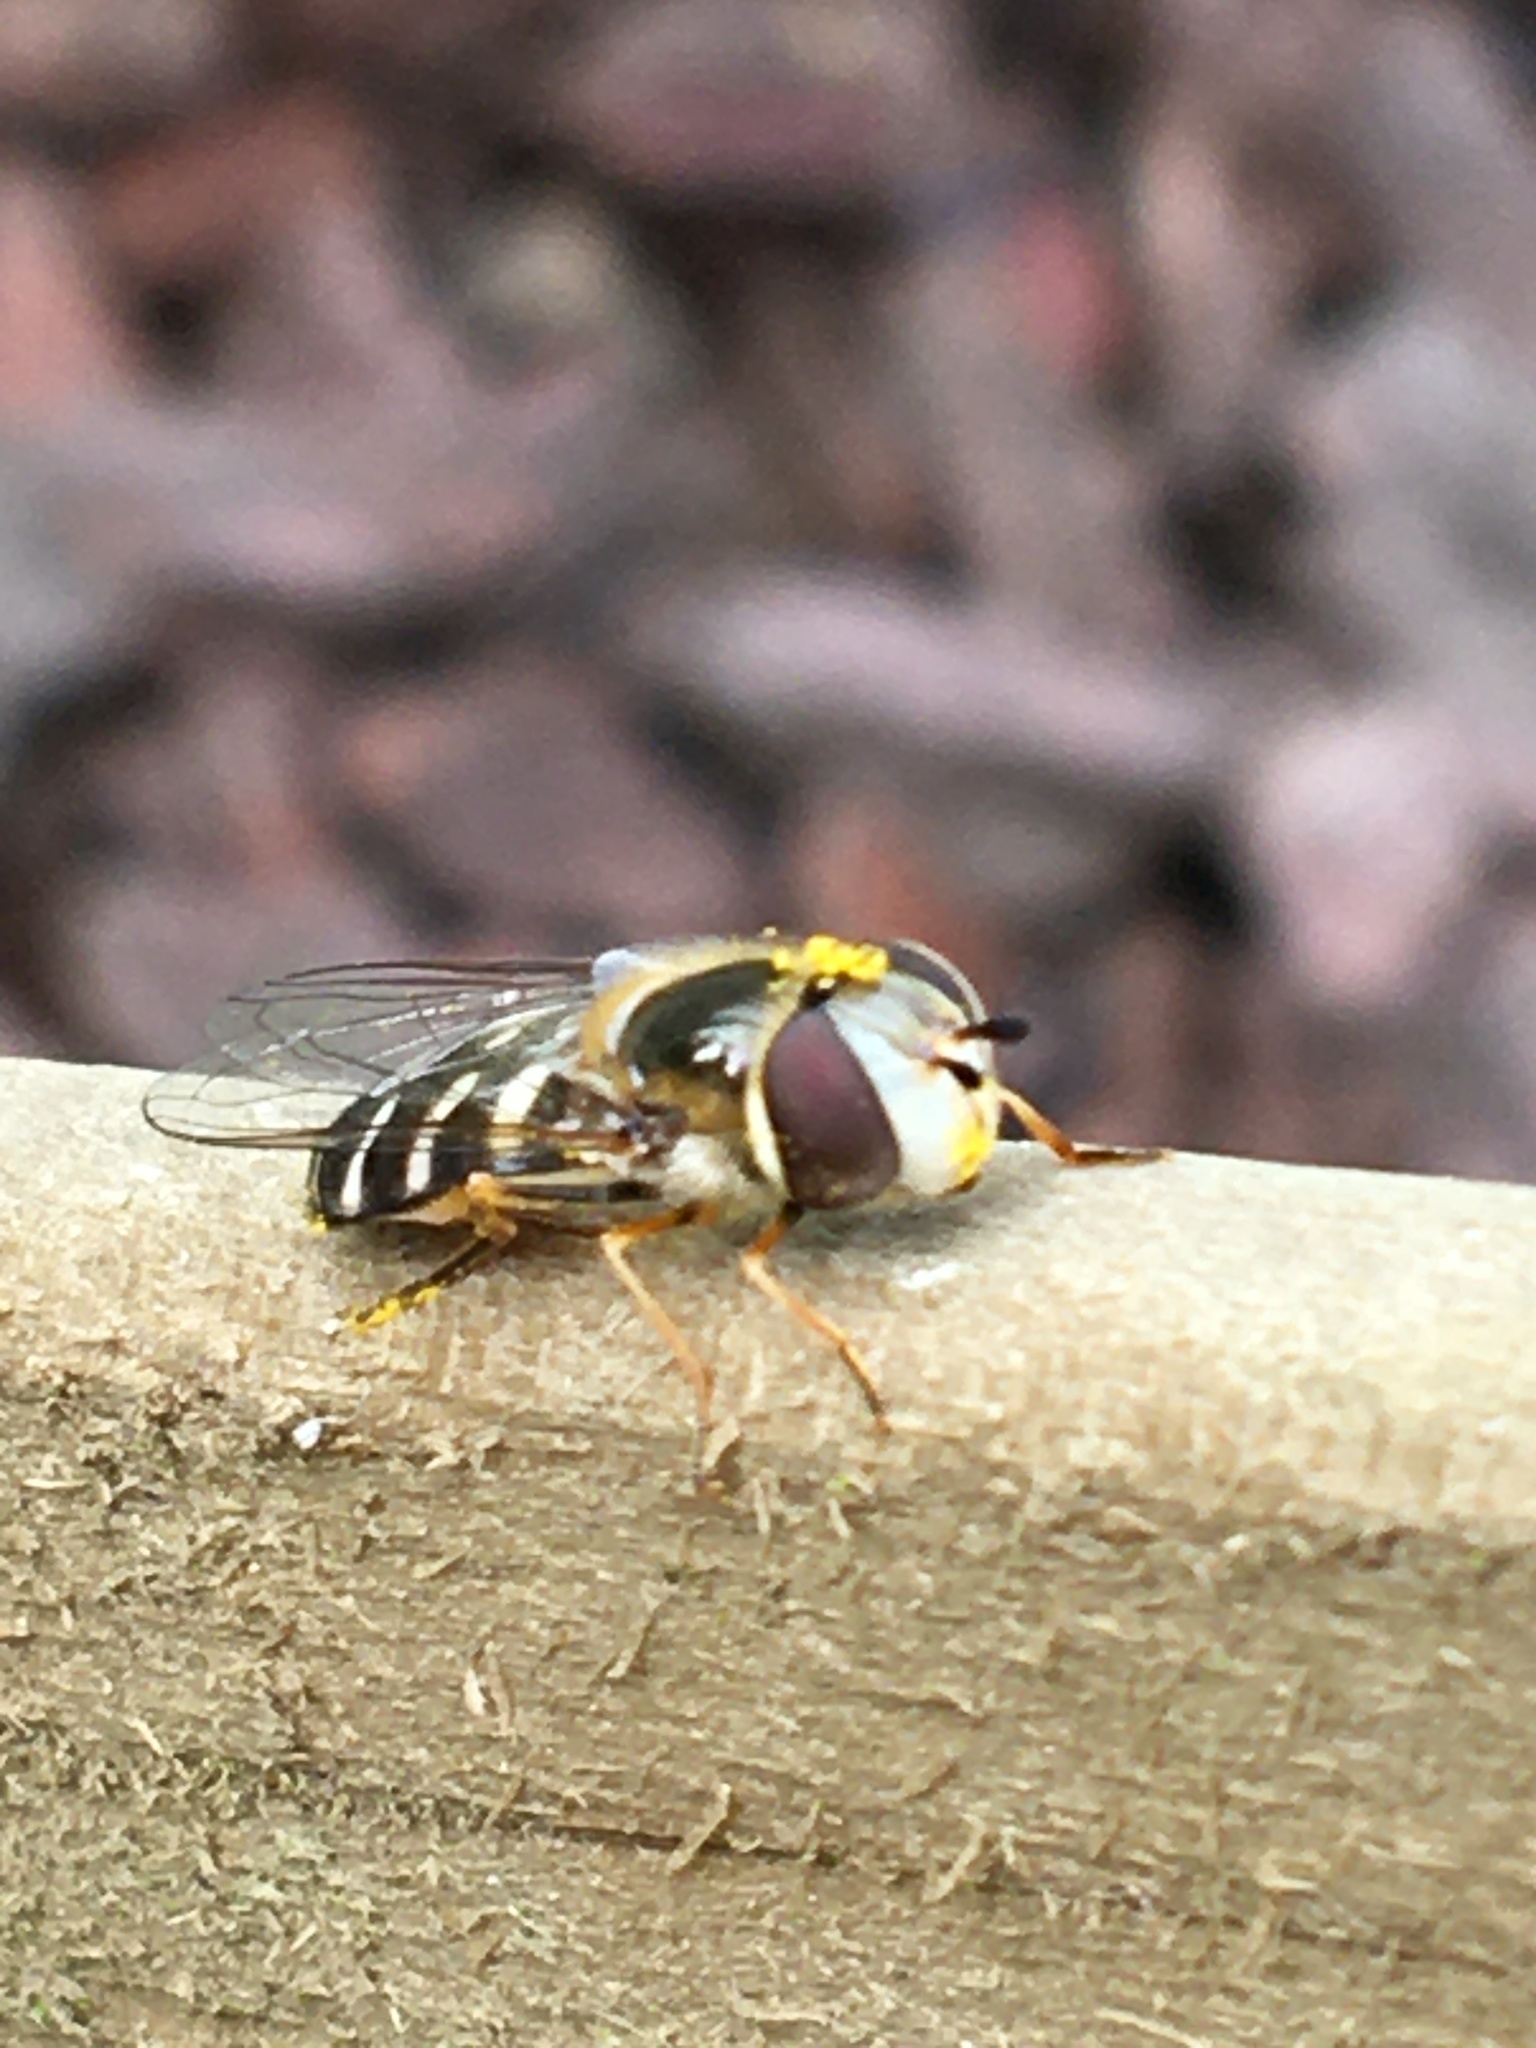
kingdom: Animalia
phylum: Arthropoda
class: Insecta
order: Diptera
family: Syrphidae
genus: Scaeva
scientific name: Scaeva pyrastri
